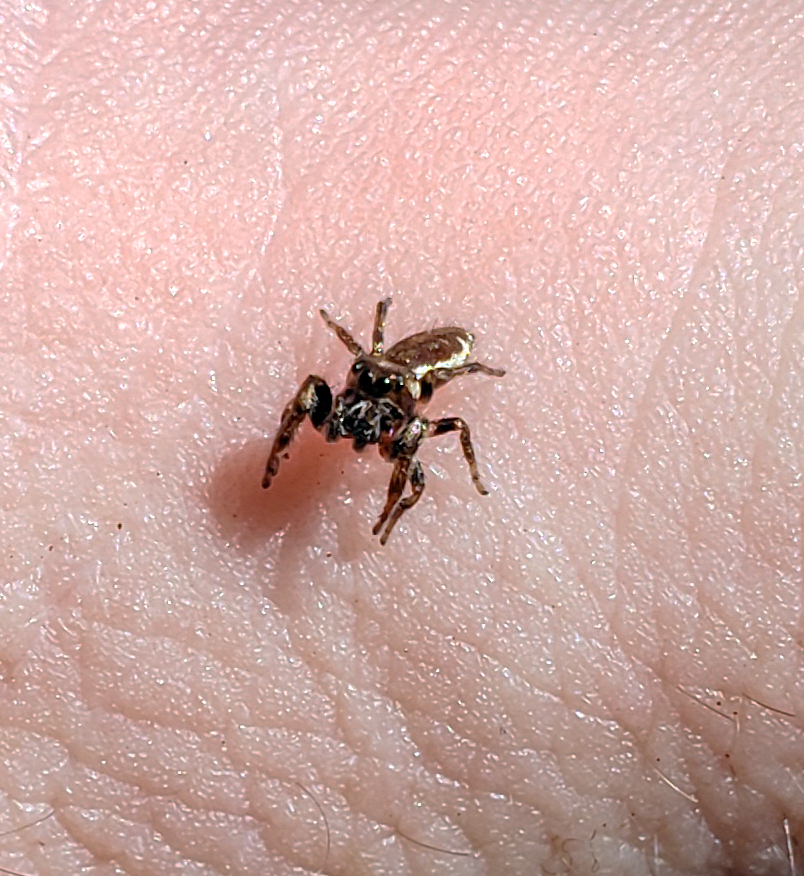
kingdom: Animalia
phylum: Arthropoda
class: Arachnida
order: Araneae
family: Salticidae
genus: Eris
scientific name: Eris militaris
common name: Bronze jumper
